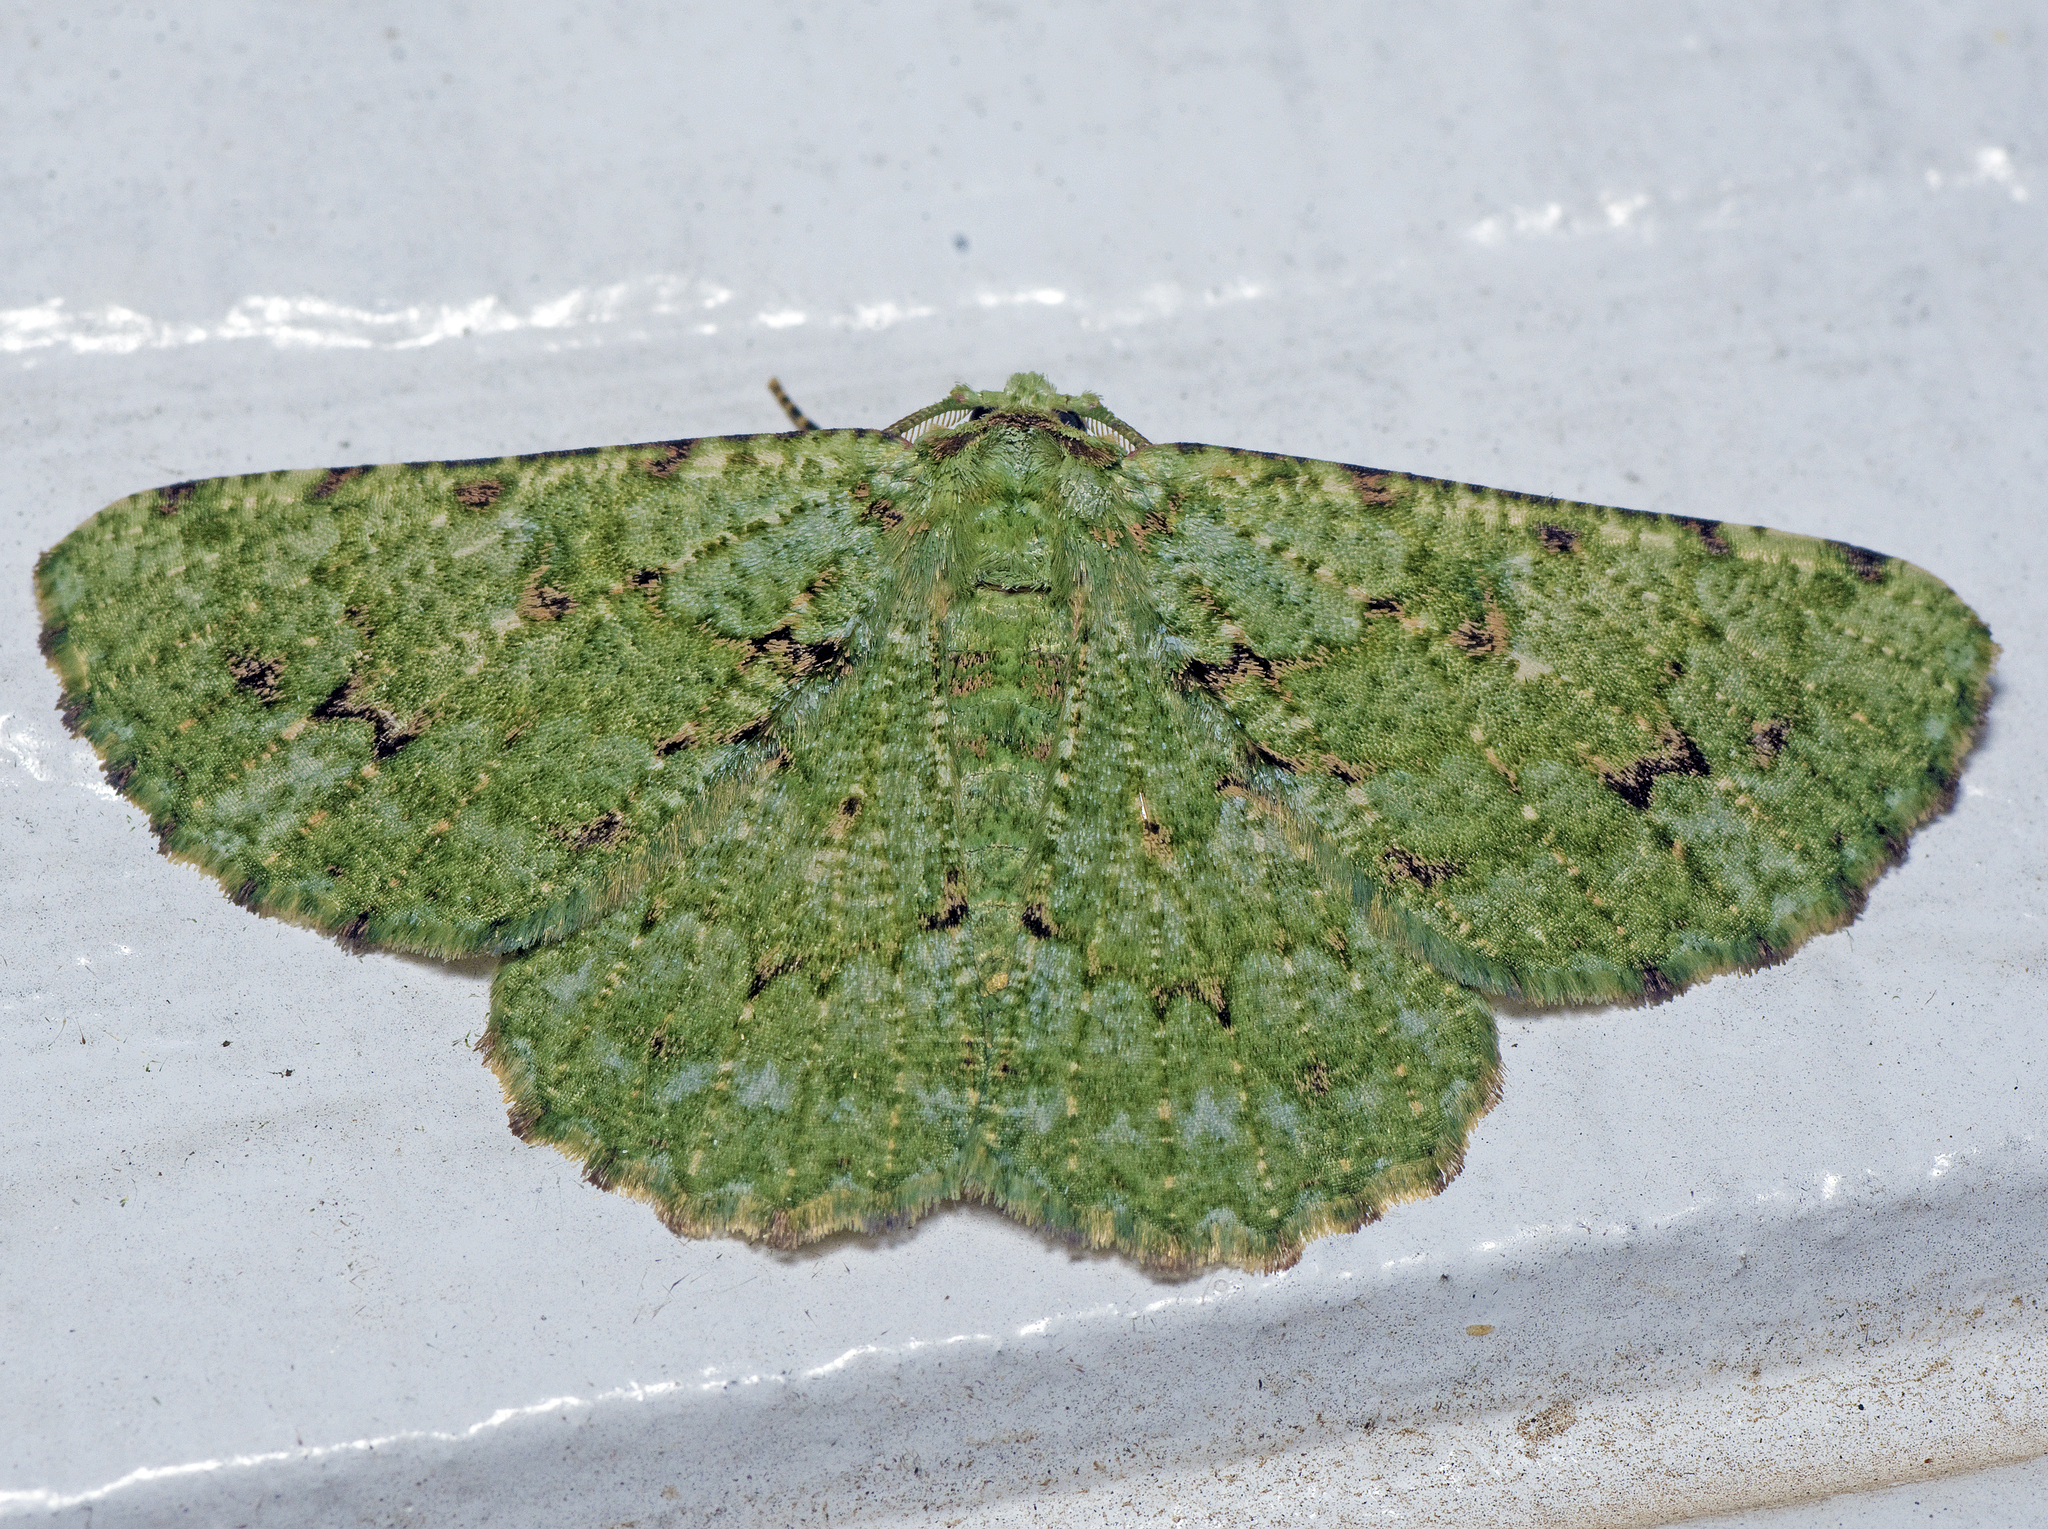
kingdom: Animalia
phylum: Arthropoda
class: Insecta
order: Lepidoptera
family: Geometridae
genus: Aeolochroma
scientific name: Aeolochroma viridicata
